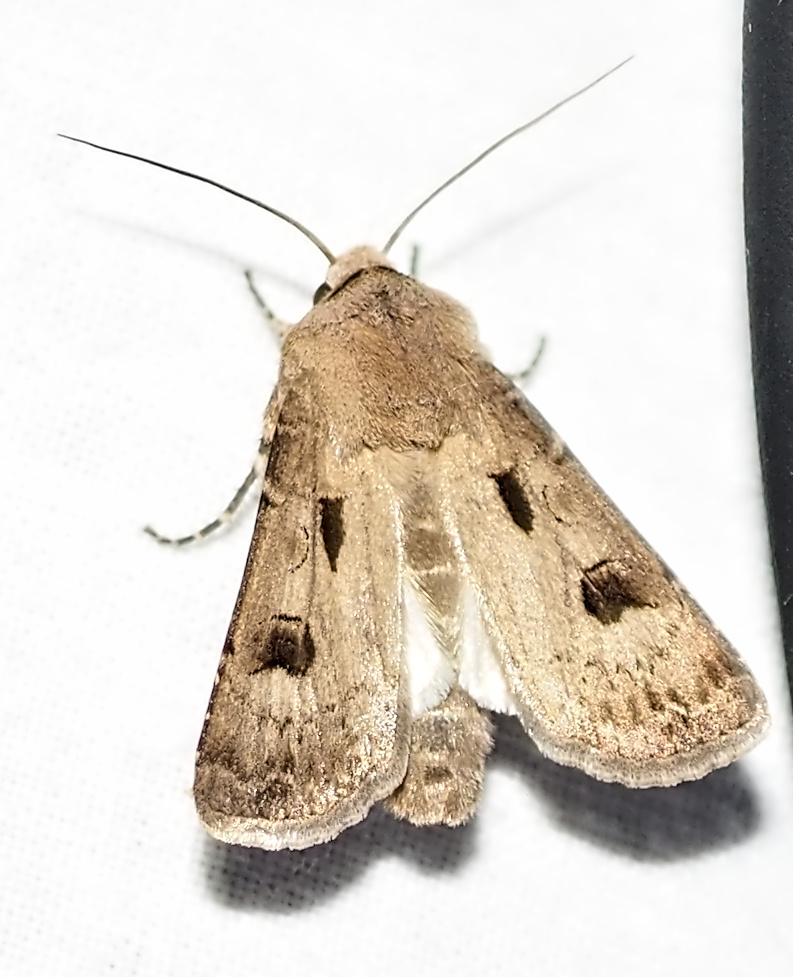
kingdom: Animalia
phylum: Arthropoda
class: Insecta
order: Lepidoptera
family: Noctuidae
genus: Agrotis
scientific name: Agrotis exclamationis
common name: Heart and dart
